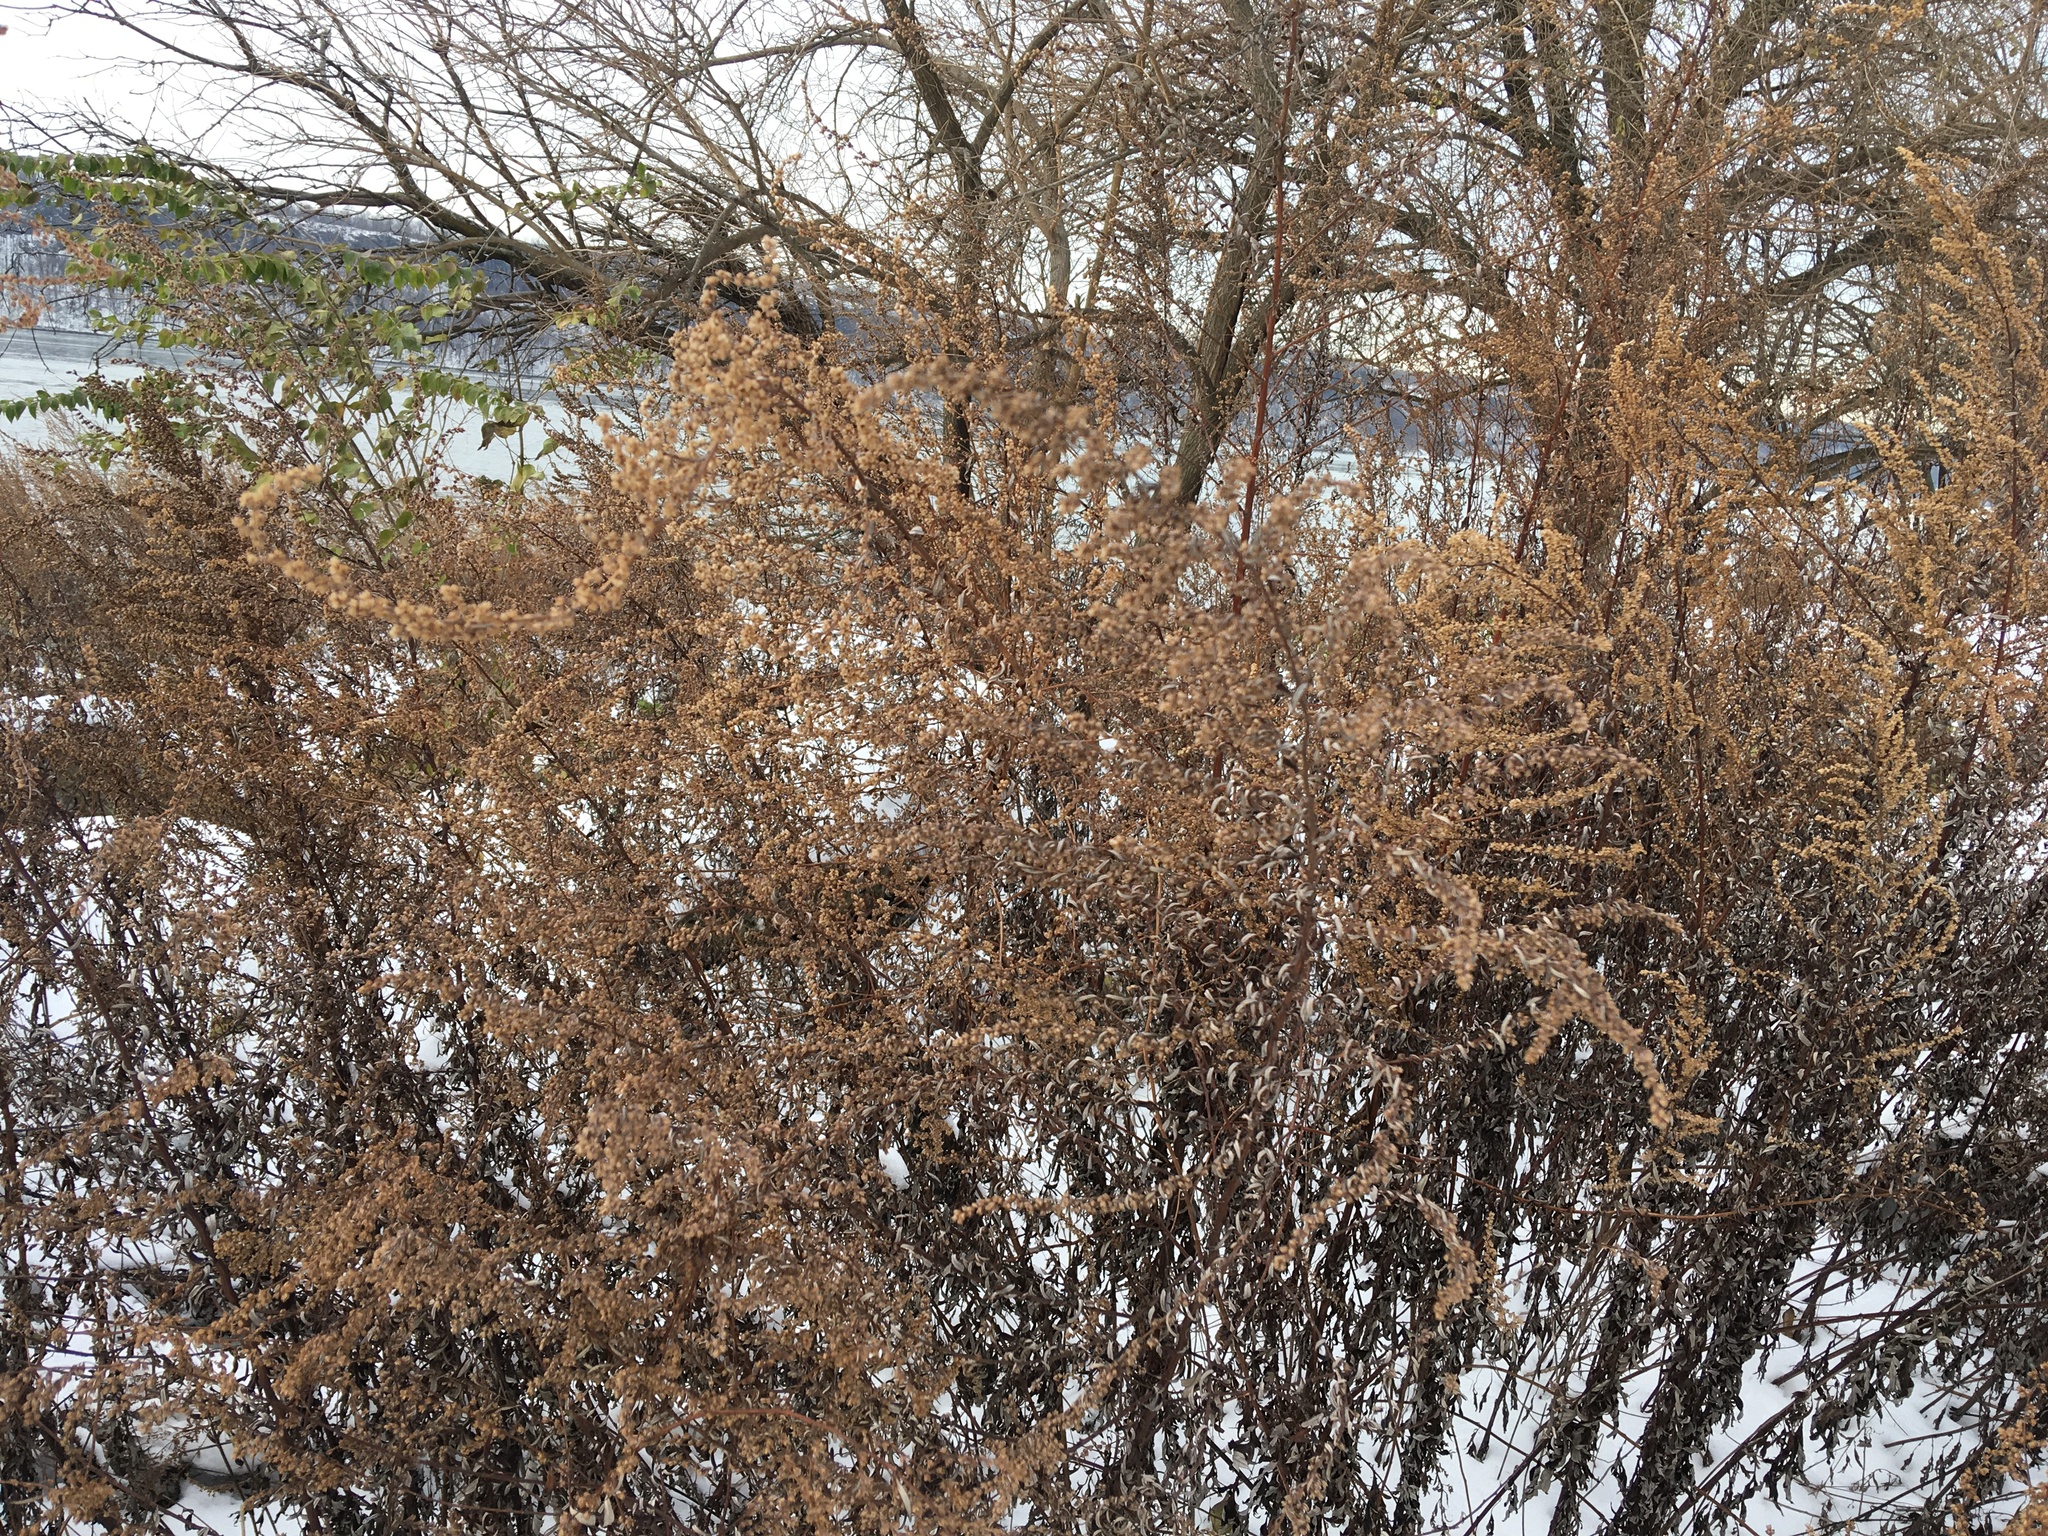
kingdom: Plantae
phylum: Tracheophyta
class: Magnoliopsida
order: Asterales
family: Asteraceae
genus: Artemisia
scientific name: Artemisia vulgaris
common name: Mugwort
